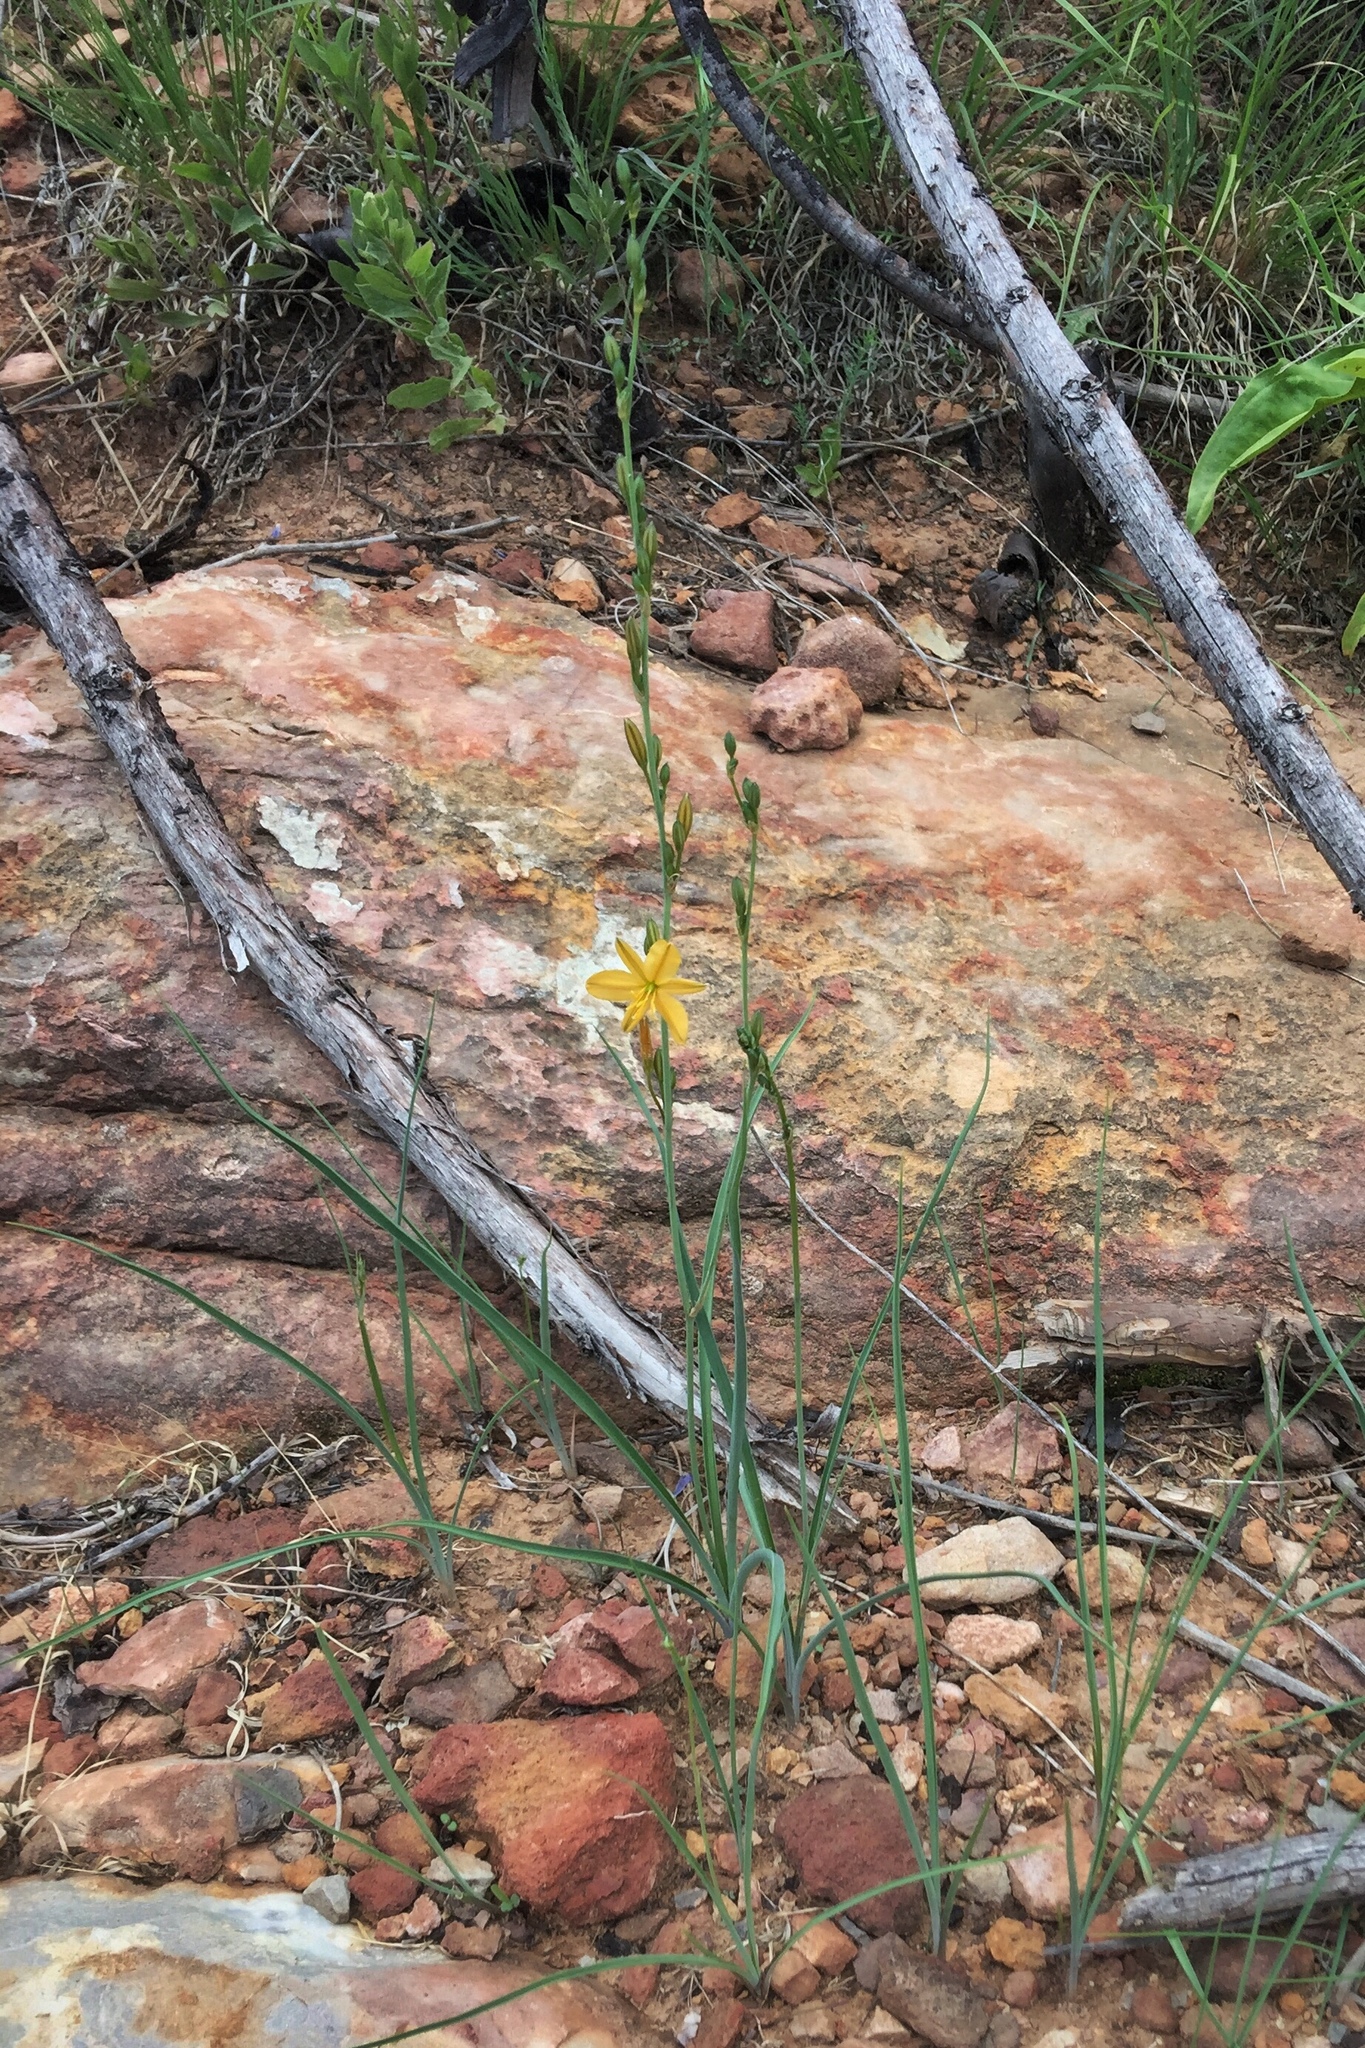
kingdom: Plantae
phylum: Tracheophyta
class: Liliopsida
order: Asparagales
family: Asparagaceae
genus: Echeandia
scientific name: Echeandia flavescens
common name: Amberlily
